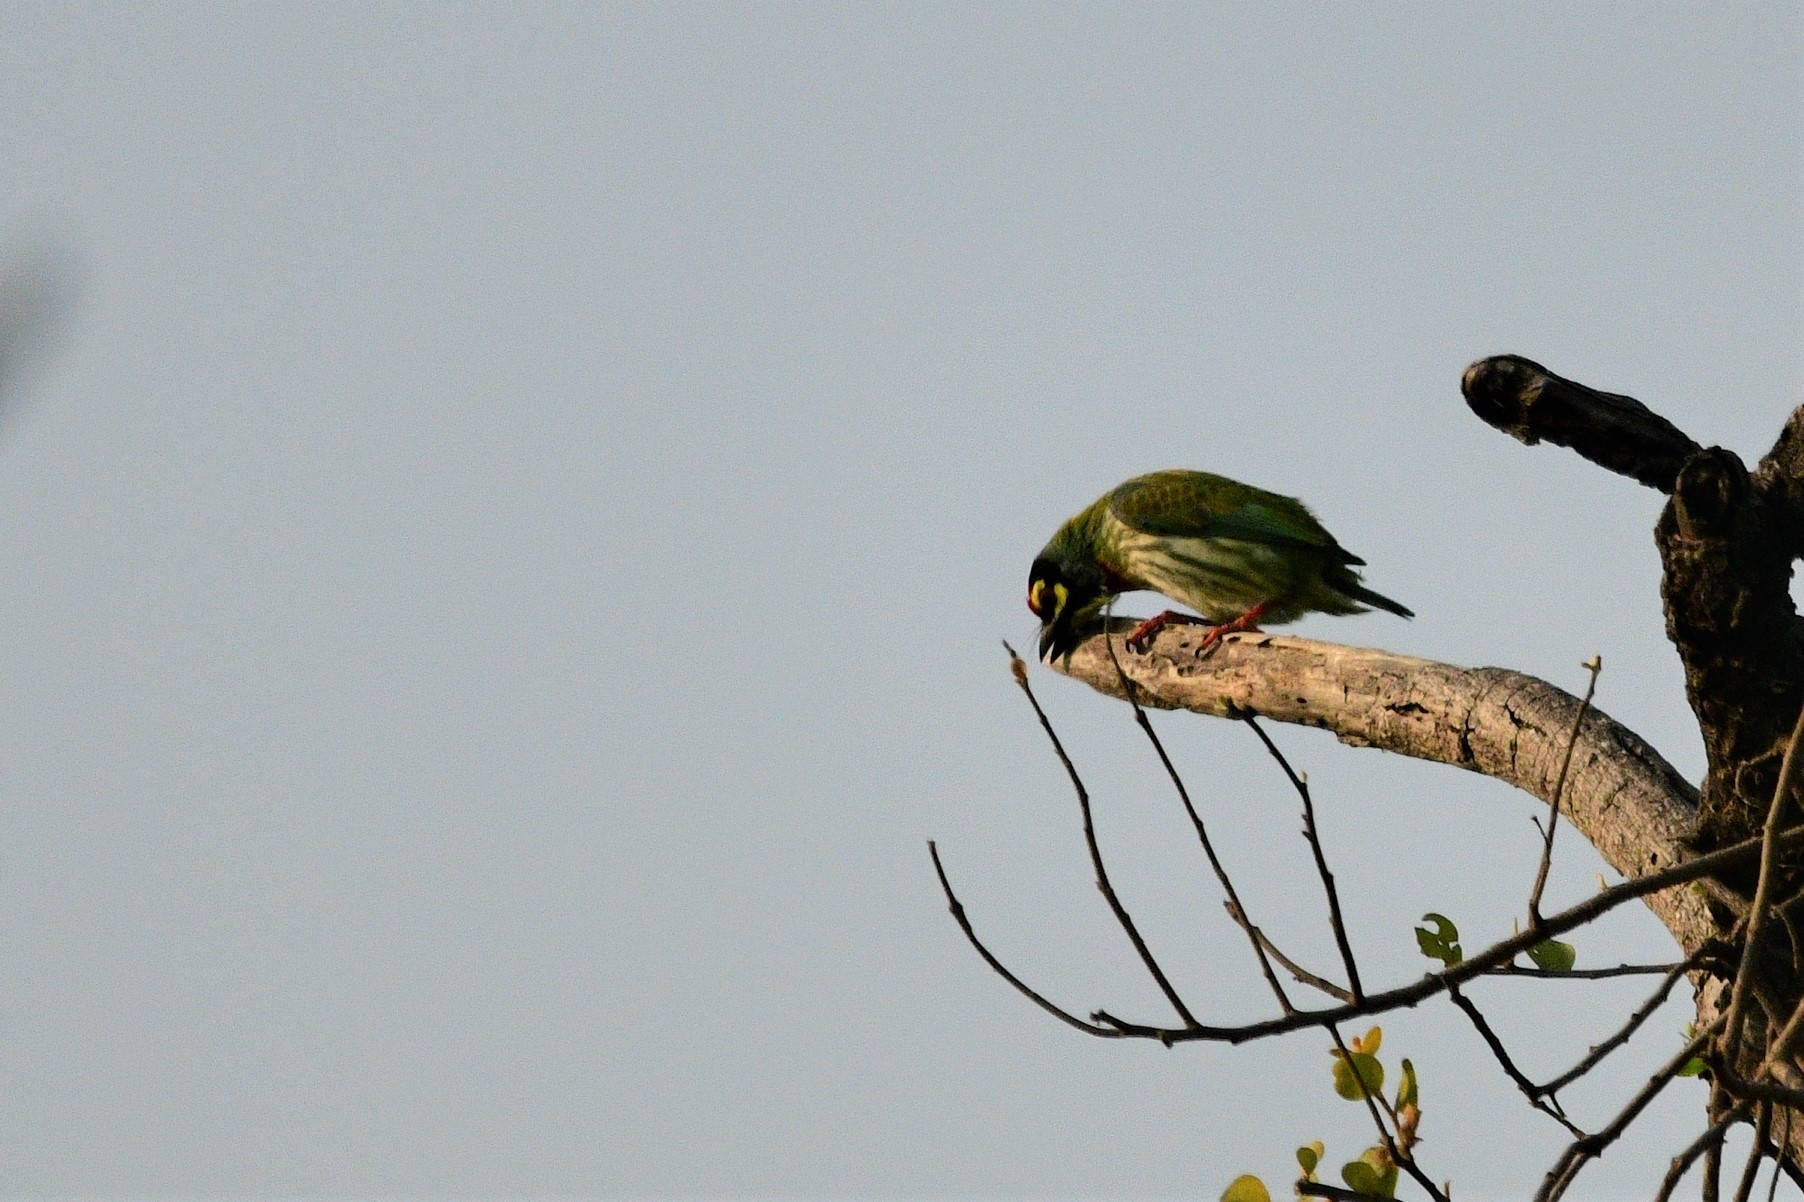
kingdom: Animalia
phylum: Chordata
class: Aves
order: Piciformes
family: Megalaimidae
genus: Psilopogon
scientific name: Psilopogon haemacephalus
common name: Coppersmith barbet
